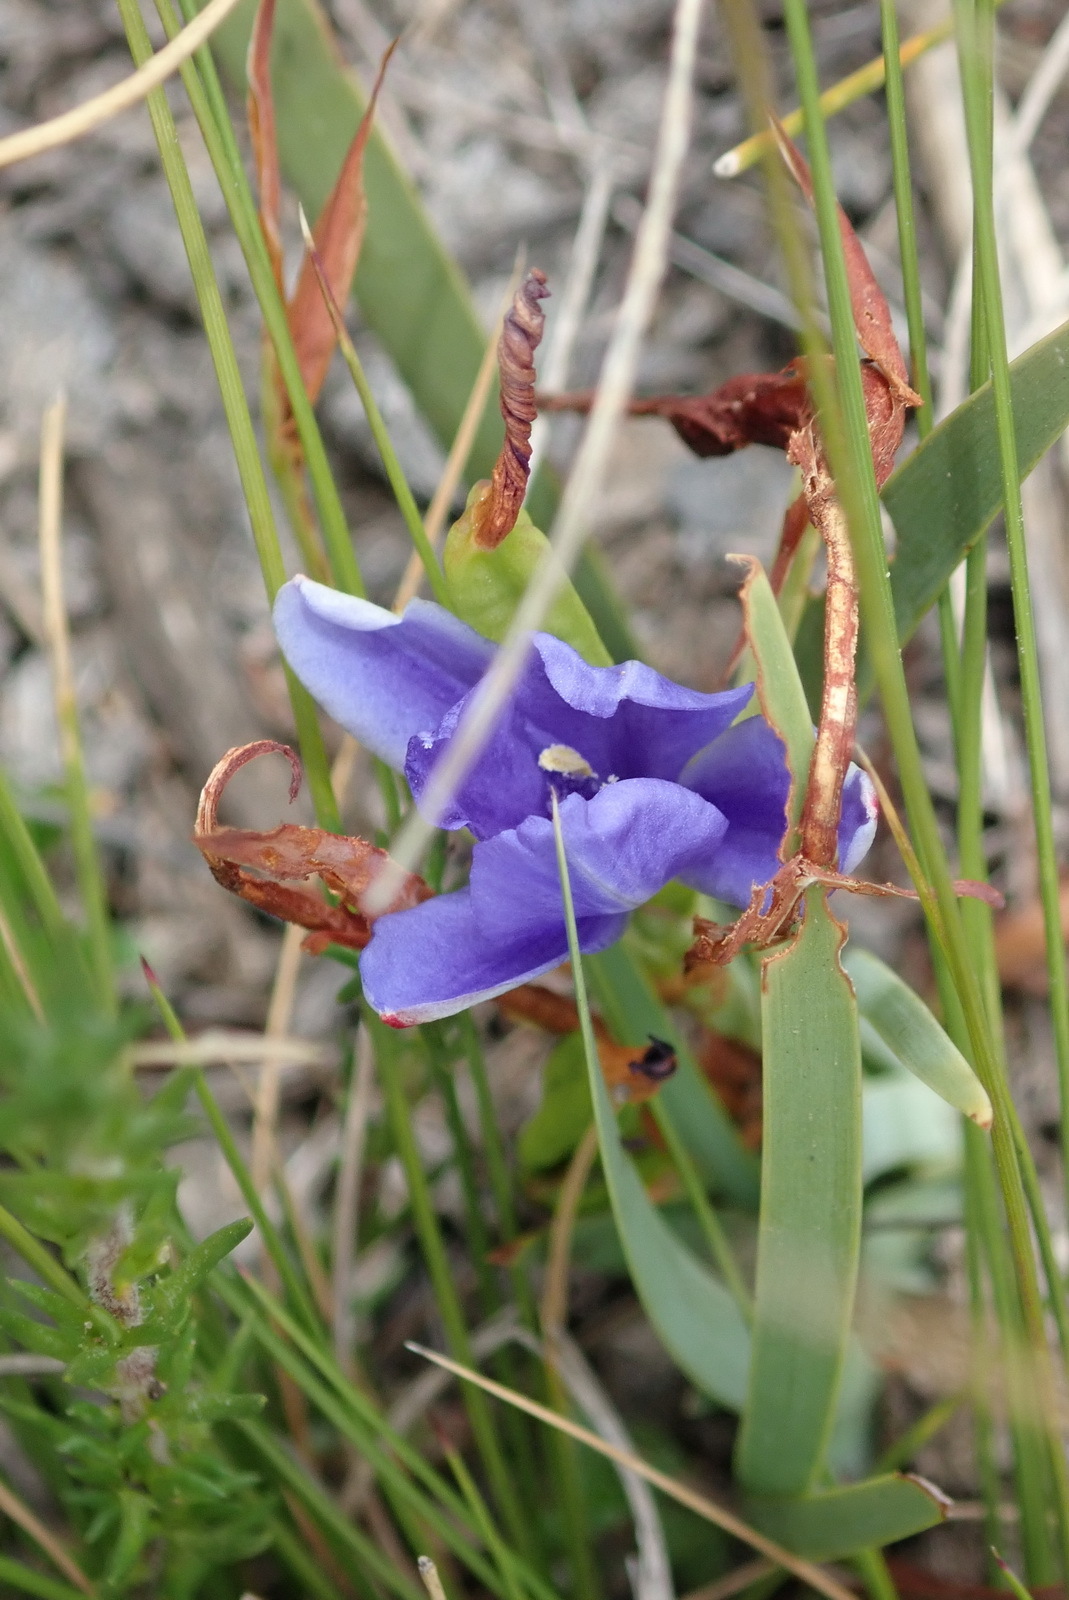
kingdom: Plantae
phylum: Tracheophyta
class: Liliopsida
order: Asparagales
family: Iridaceae
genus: Aristea
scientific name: Aristea nana
